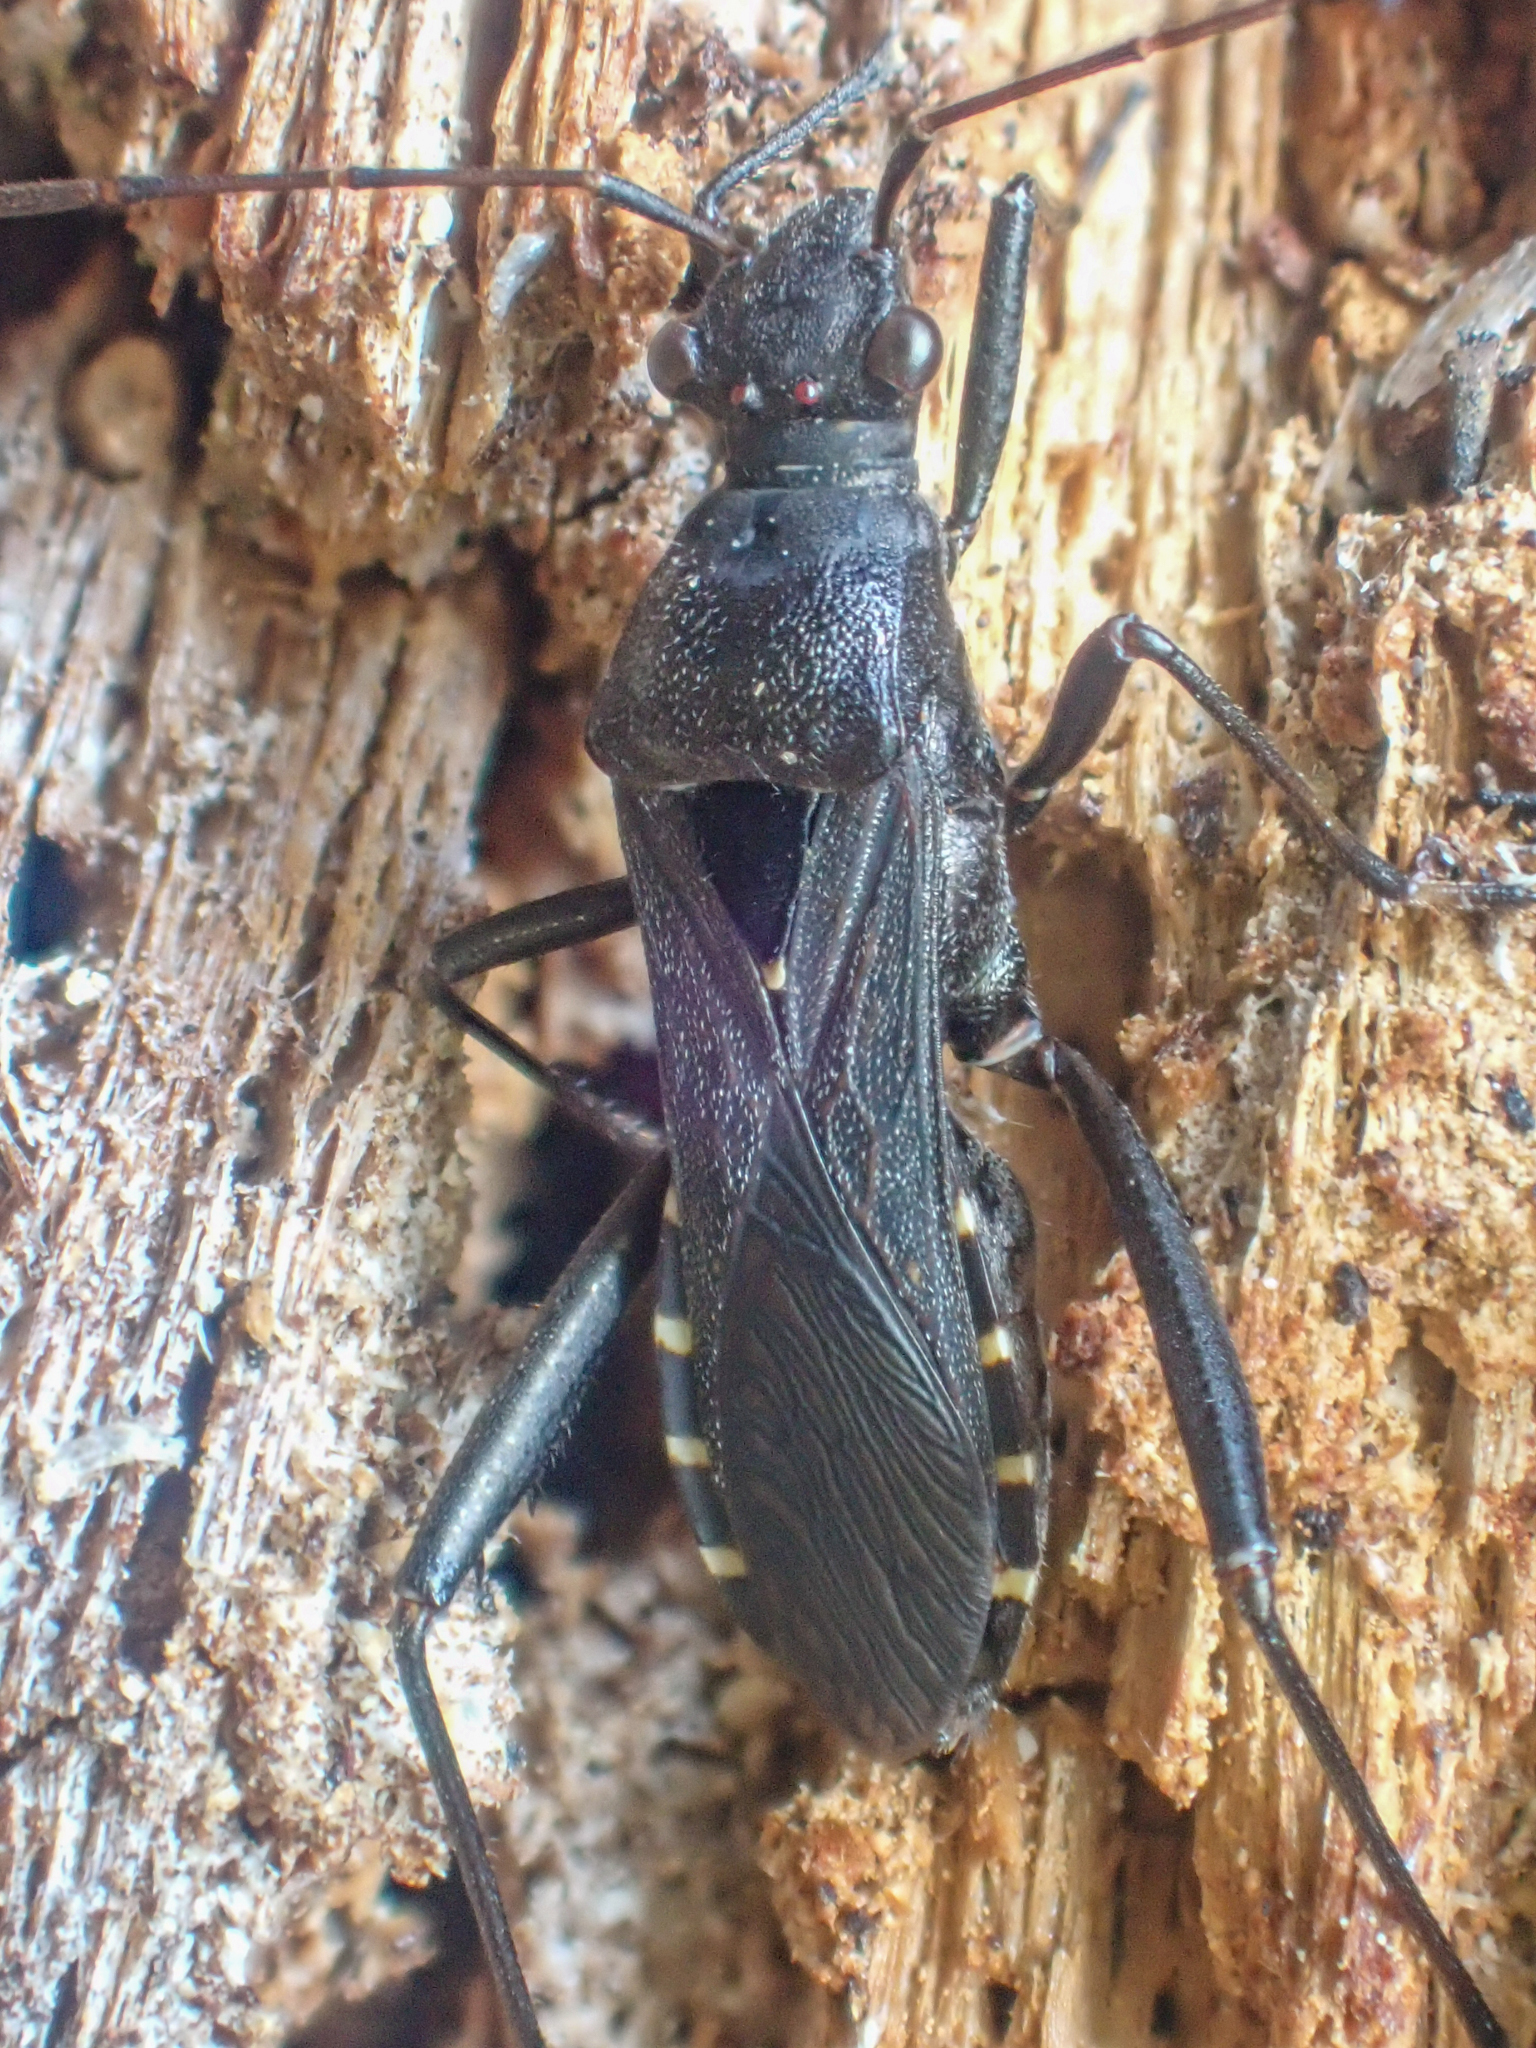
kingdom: Animalia
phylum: Arthropoda
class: Insecta
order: Hemiptera
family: Alydidae
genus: Alydus
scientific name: Alydus conspersus
